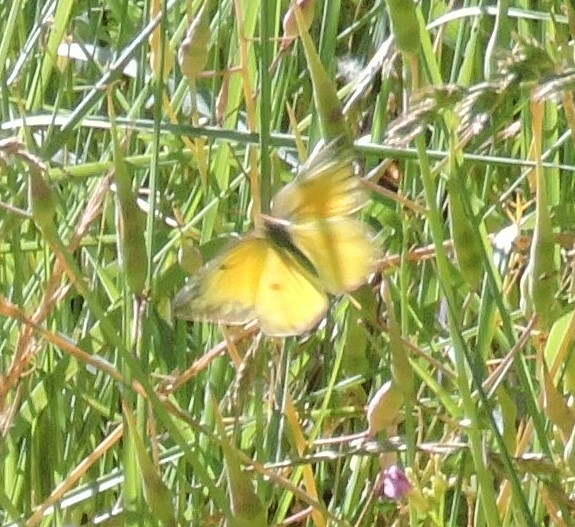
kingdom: Animalia
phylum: Arthropoda
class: Insecta
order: Lepidoptera
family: Pieridae
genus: Colias
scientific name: Colias eurytheme
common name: Alfalfa butterfly
